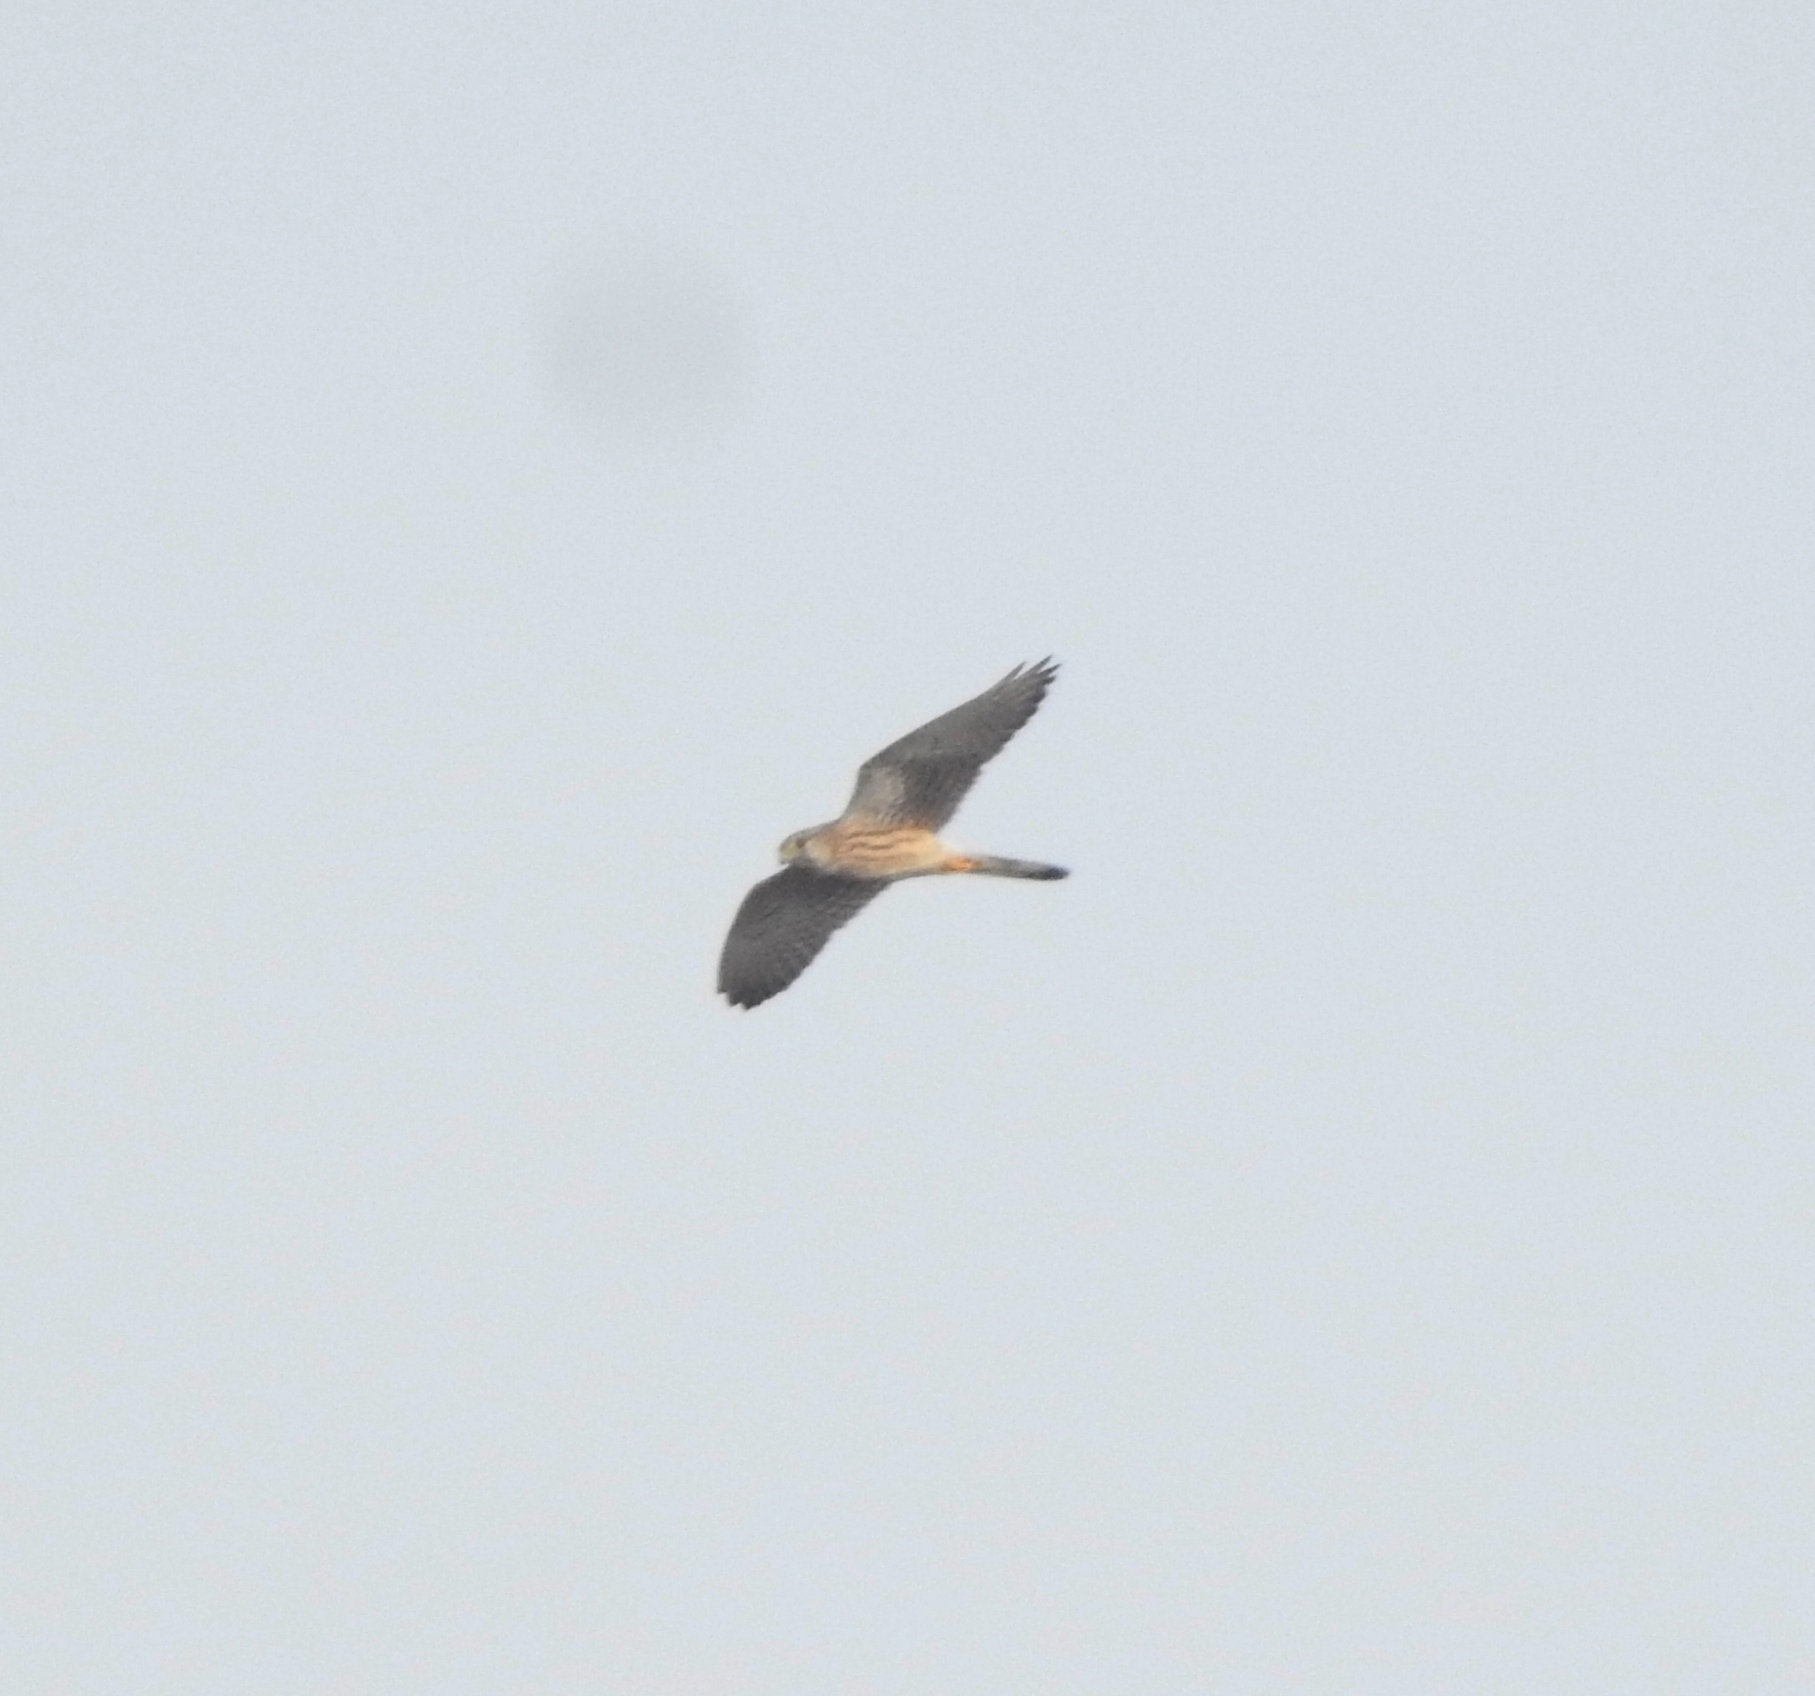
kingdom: Animalia
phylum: Chordata
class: Aves
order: Falconiformes
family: Falconidae
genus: Falco
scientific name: Falco tinnunculus
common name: Common kestrel
